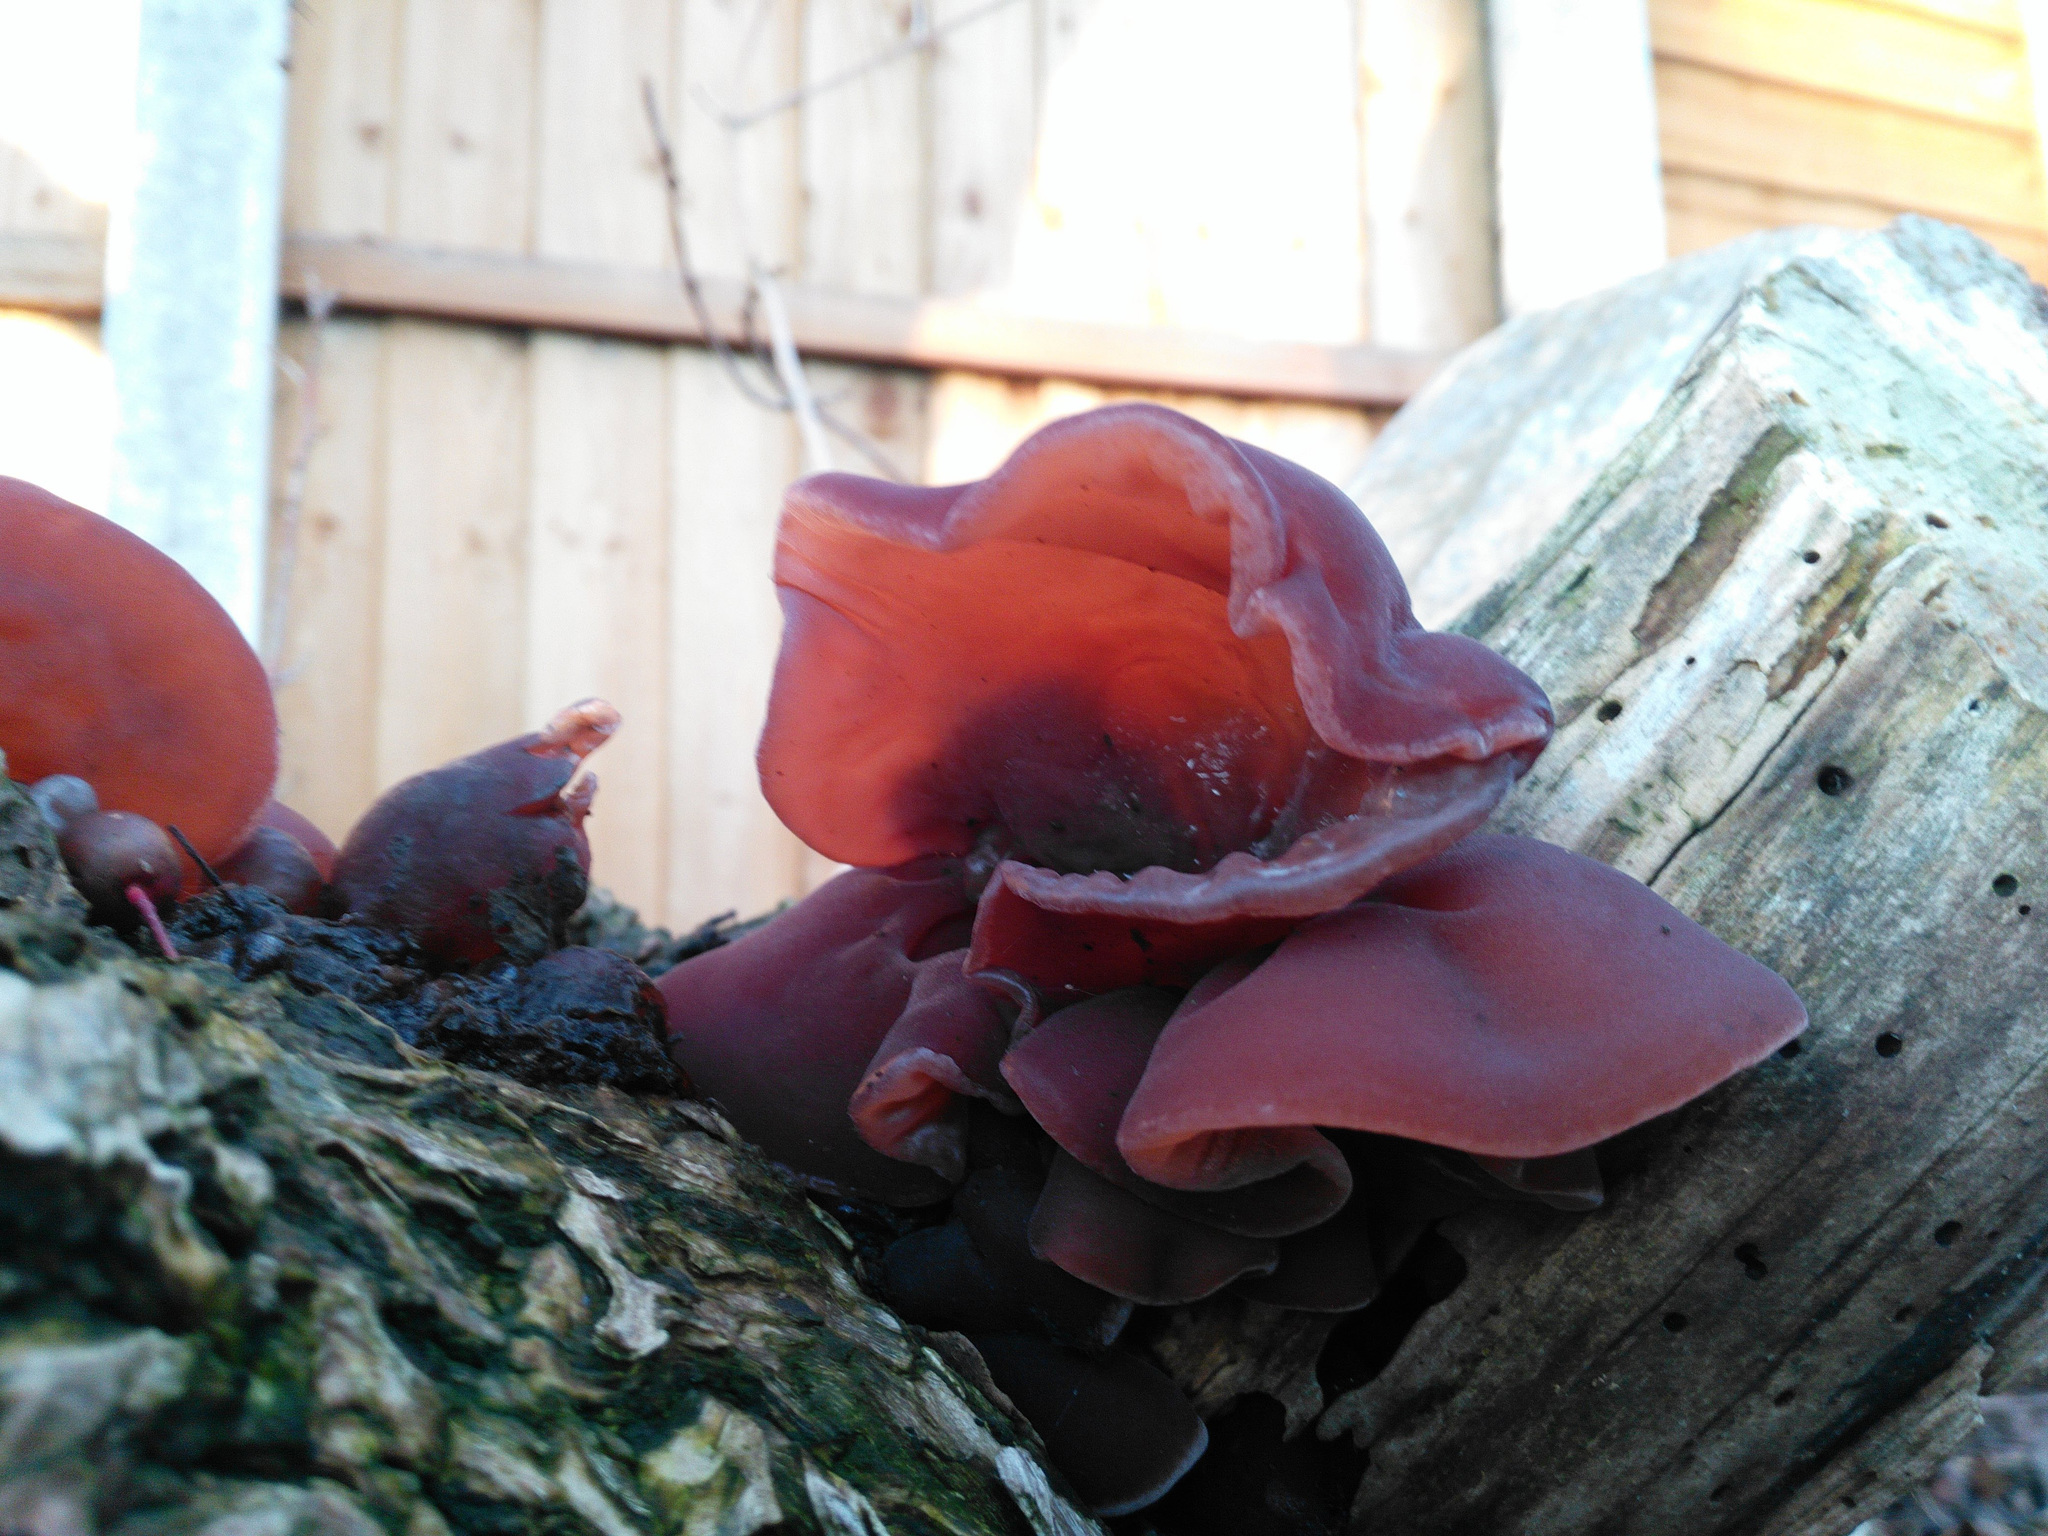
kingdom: Fungi
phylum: Basidiomycota
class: Agaricomycetes
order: Auriculariales
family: Auriculariaceae
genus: Auricularia
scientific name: Auricularia auricula-judae
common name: Jelly ear
